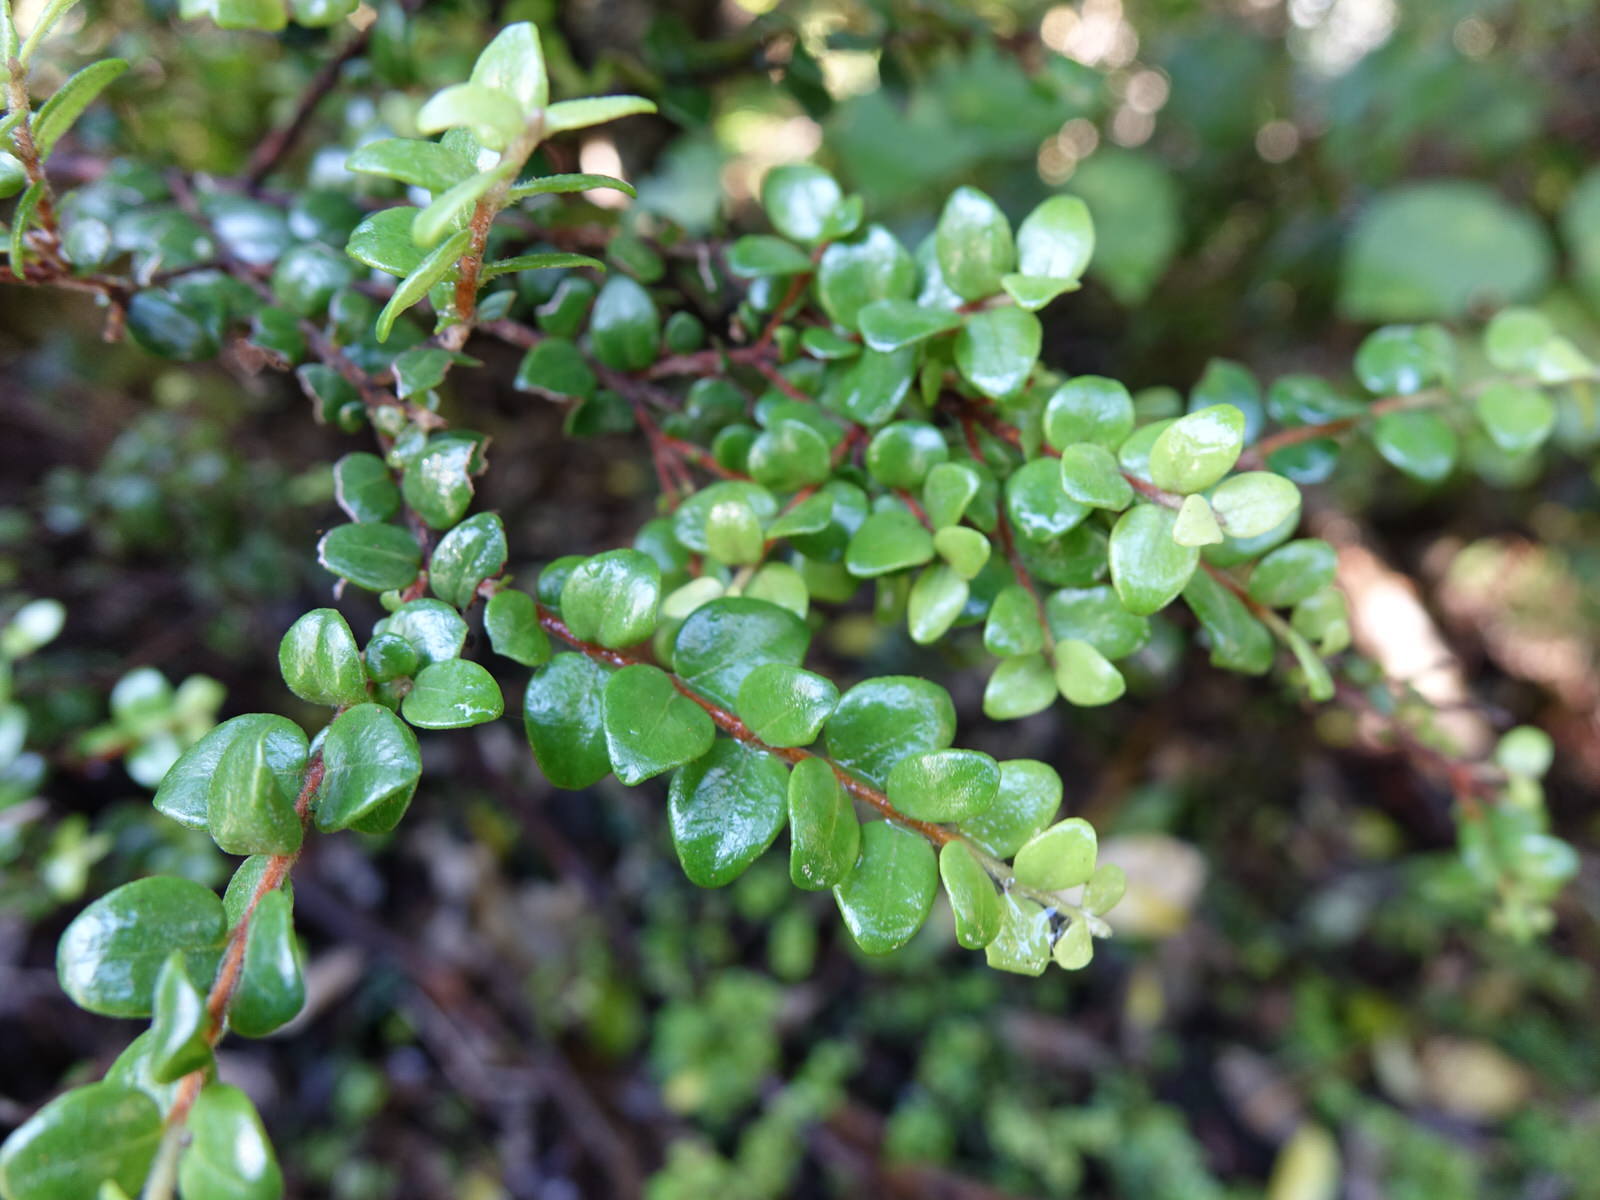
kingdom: Plantae
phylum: Tracheophyta
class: Magnoliopsida
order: Myrtales
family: Myrtaceae
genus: Metrosideros
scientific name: Metrosideros perforata
